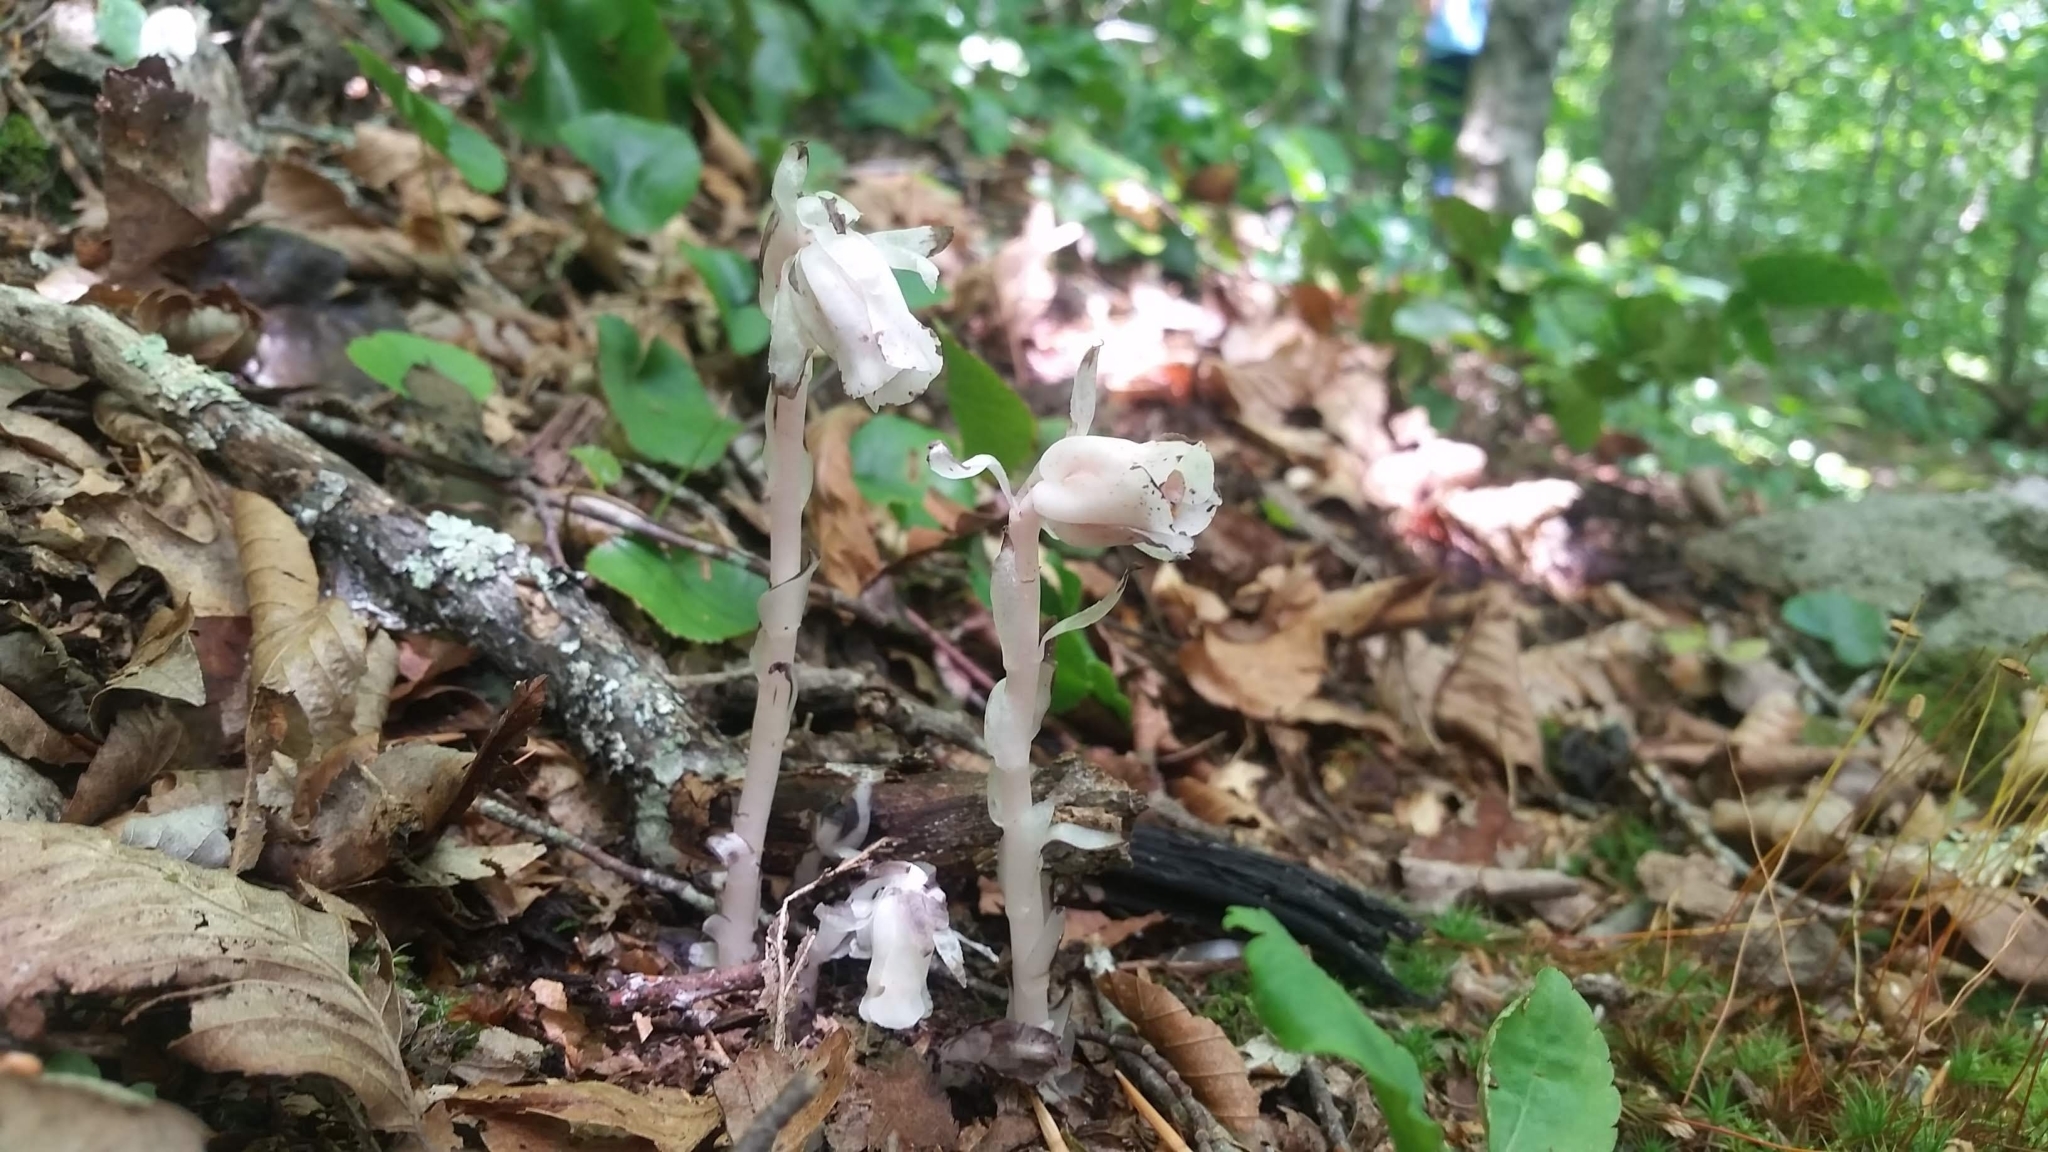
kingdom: Plantae
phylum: Tracheophyta
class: Magnoliopsida
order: Ericales
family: Ericaceae
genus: Monotropa
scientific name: Monotropa uniflora
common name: Convulsion root
